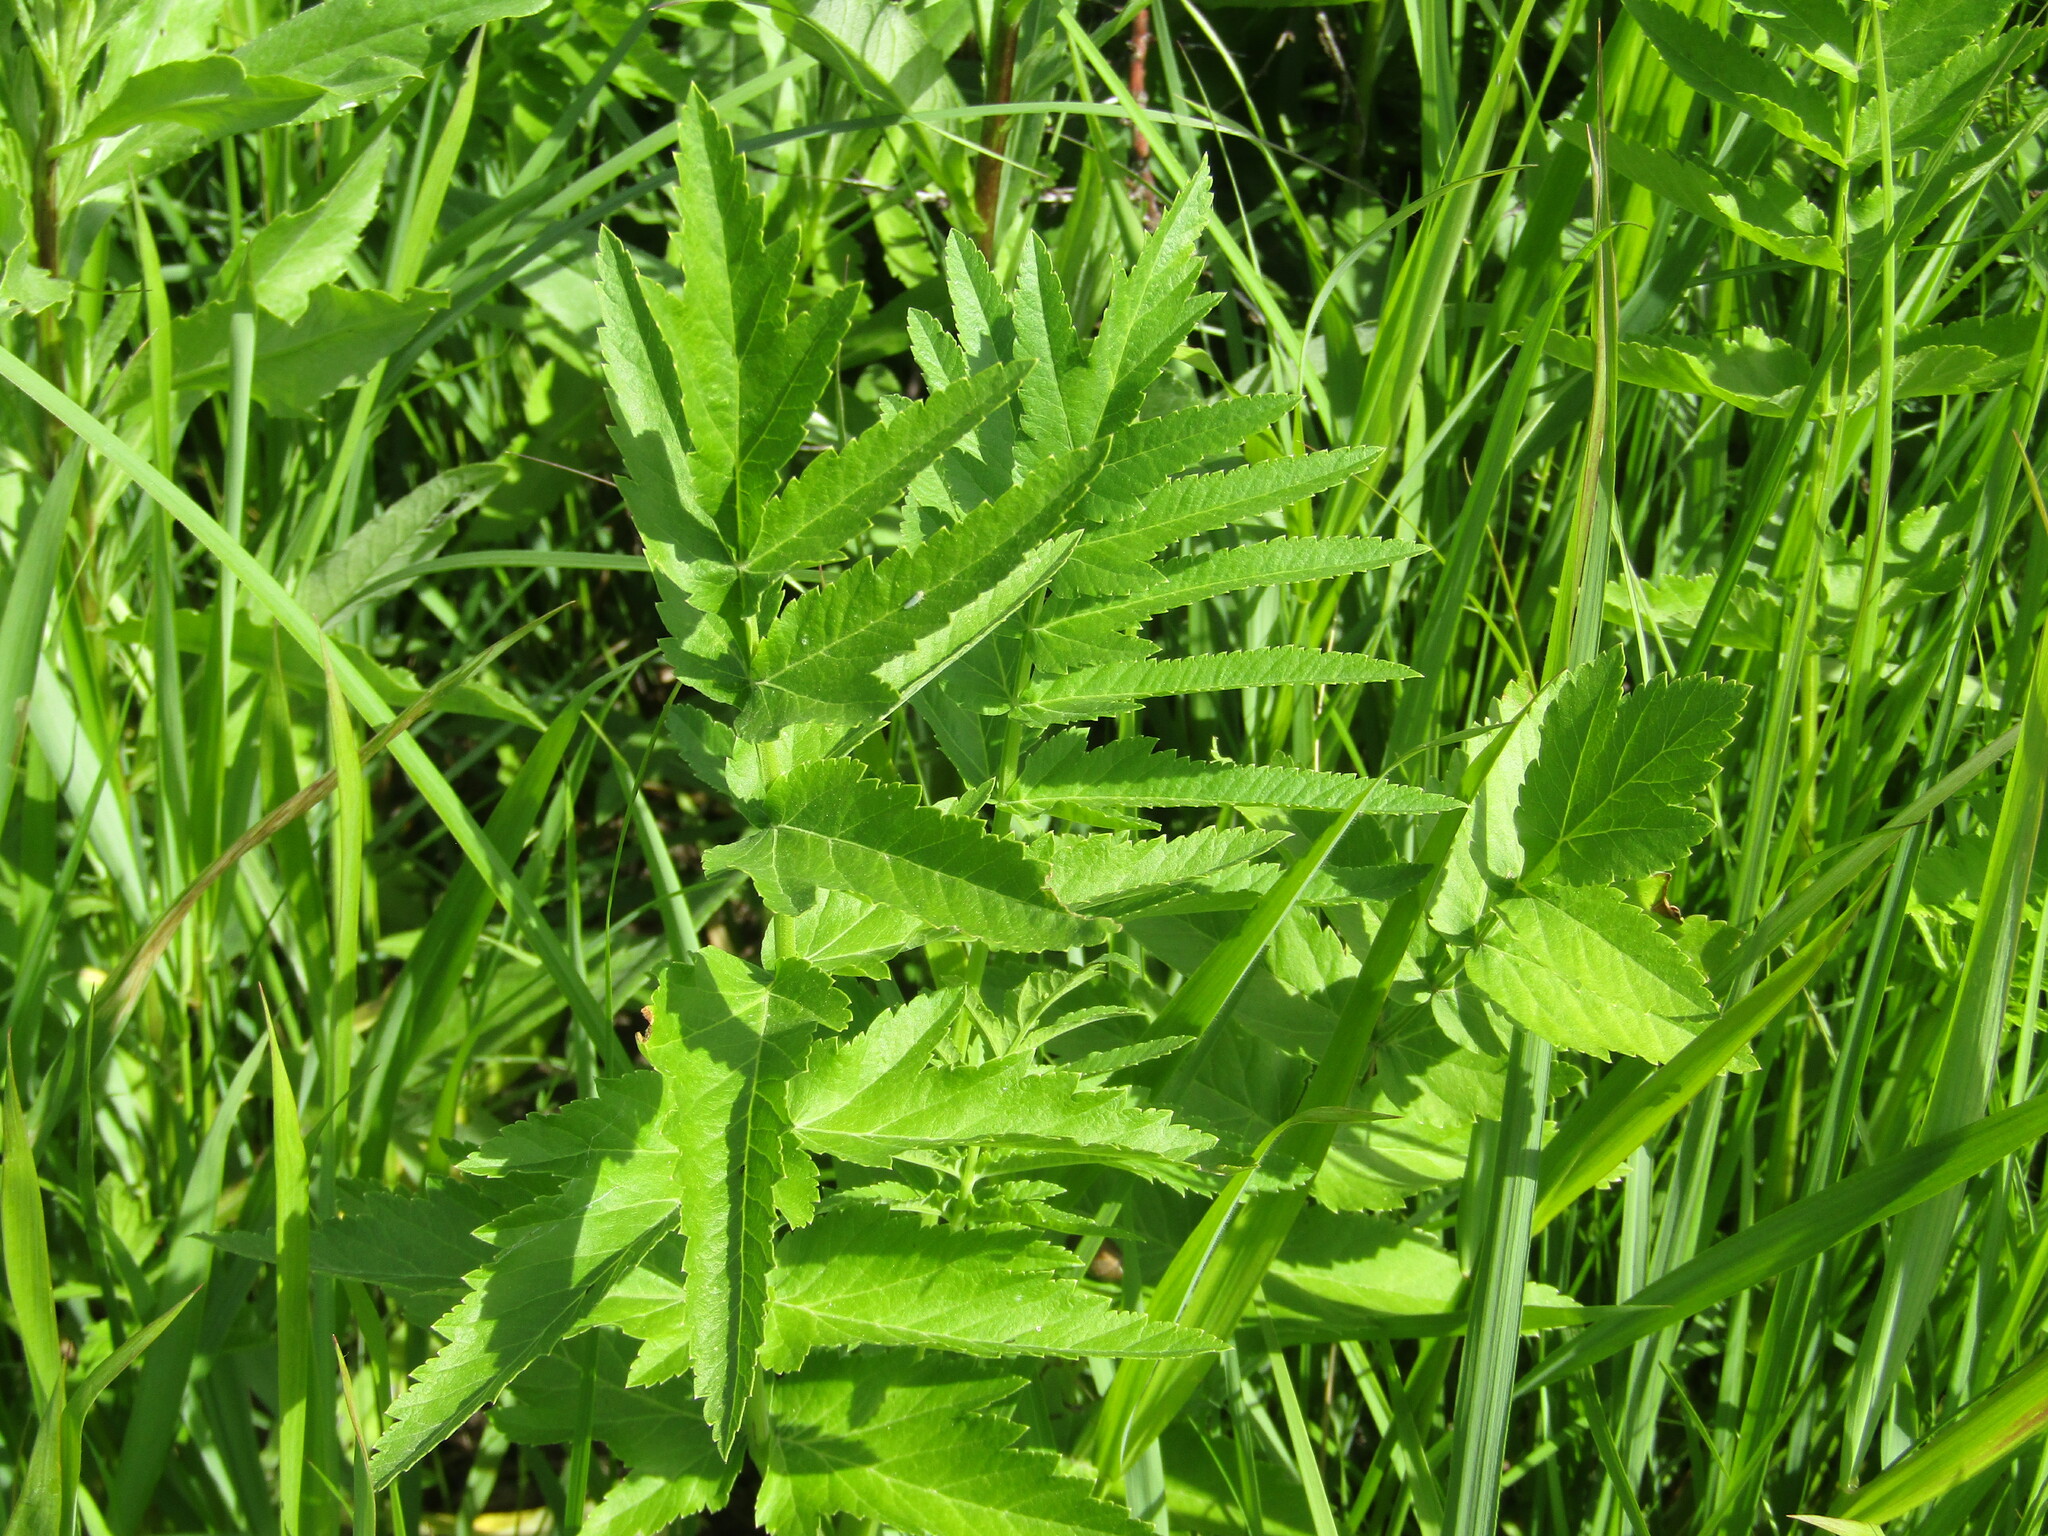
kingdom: Plantae
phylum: Tracheophyta
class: Magnoliopsida
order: Apiales
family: Apiaceae
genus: Pastinaca
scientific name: Pastinaca sativa
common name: Wild parsnip
